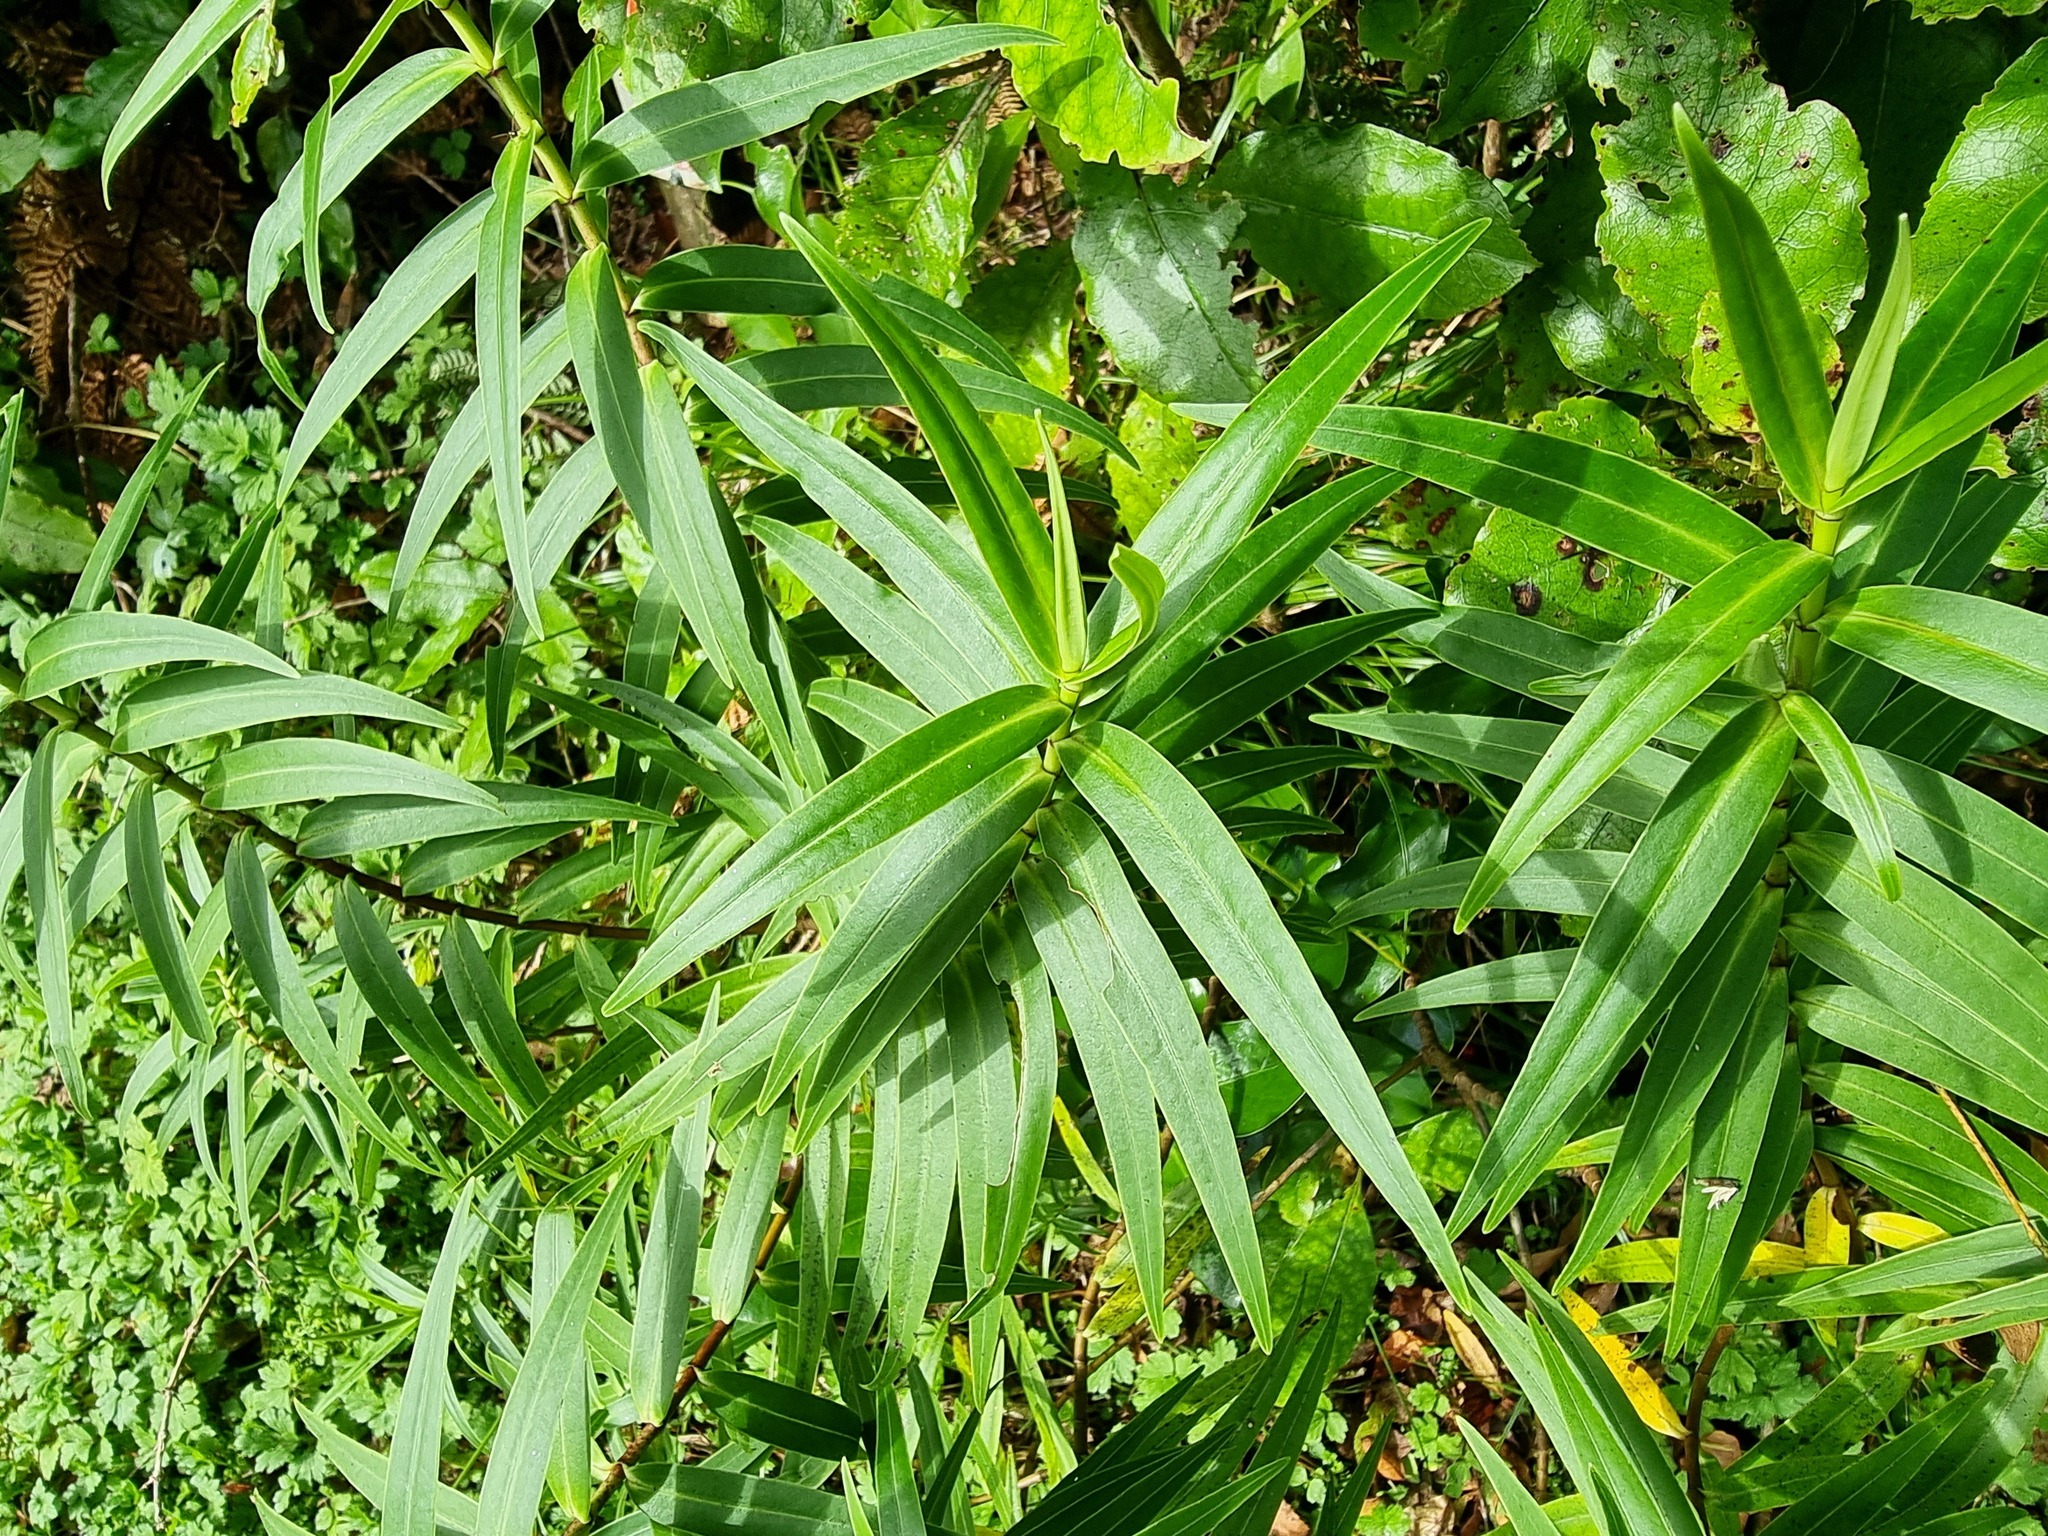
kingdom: Plantae
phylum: Tracheophyta
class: Magnoliopsida
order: Lamiales
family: Plantaginaceae
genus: Veronica
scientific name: Veronica stricta
